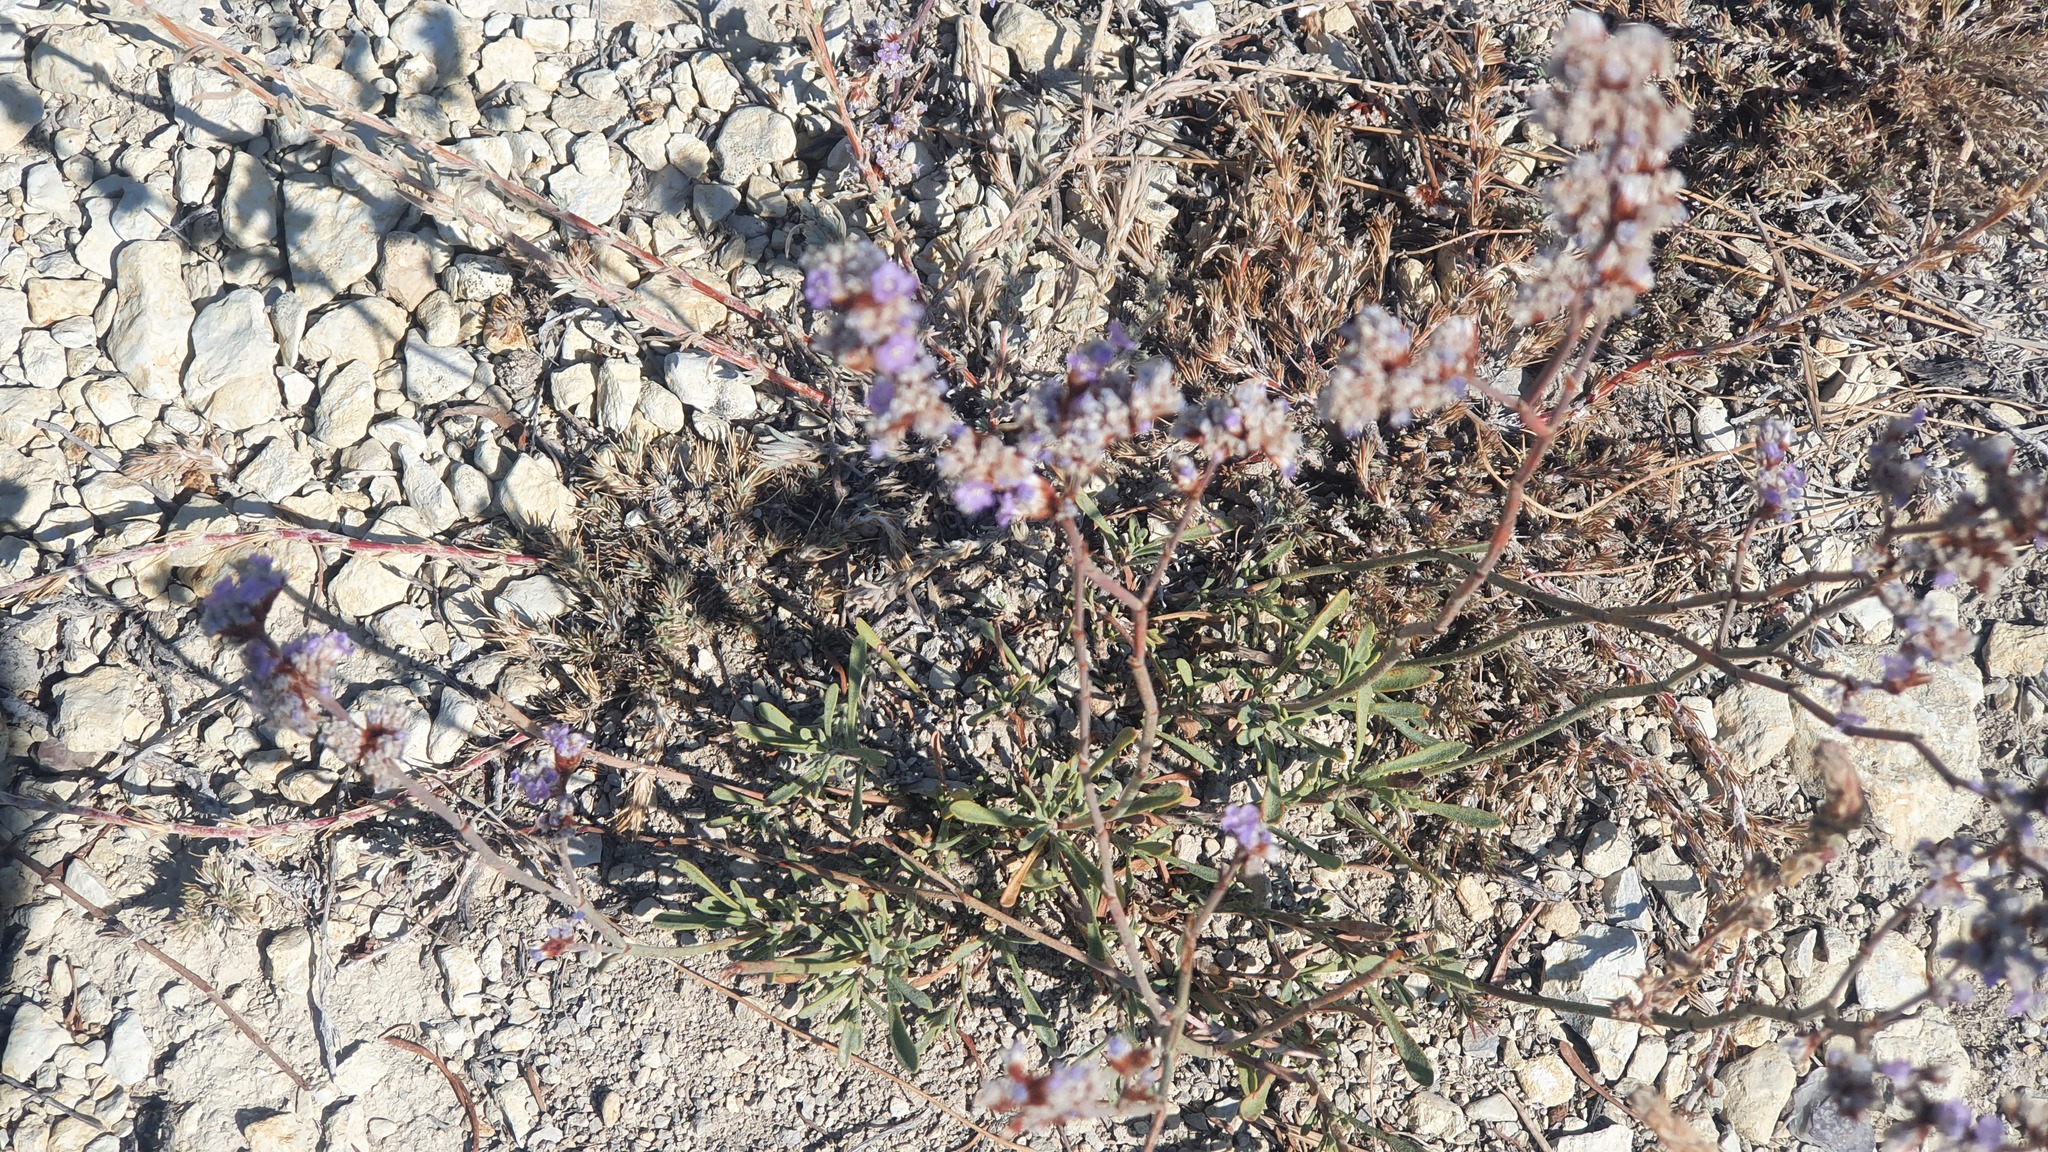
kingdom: Plantae
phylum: Tracheophyta
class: Magnoliopsida
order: Caryophyllales
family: Plumbaginaceae
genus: Limonium
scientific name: Limonium suffruticosum
